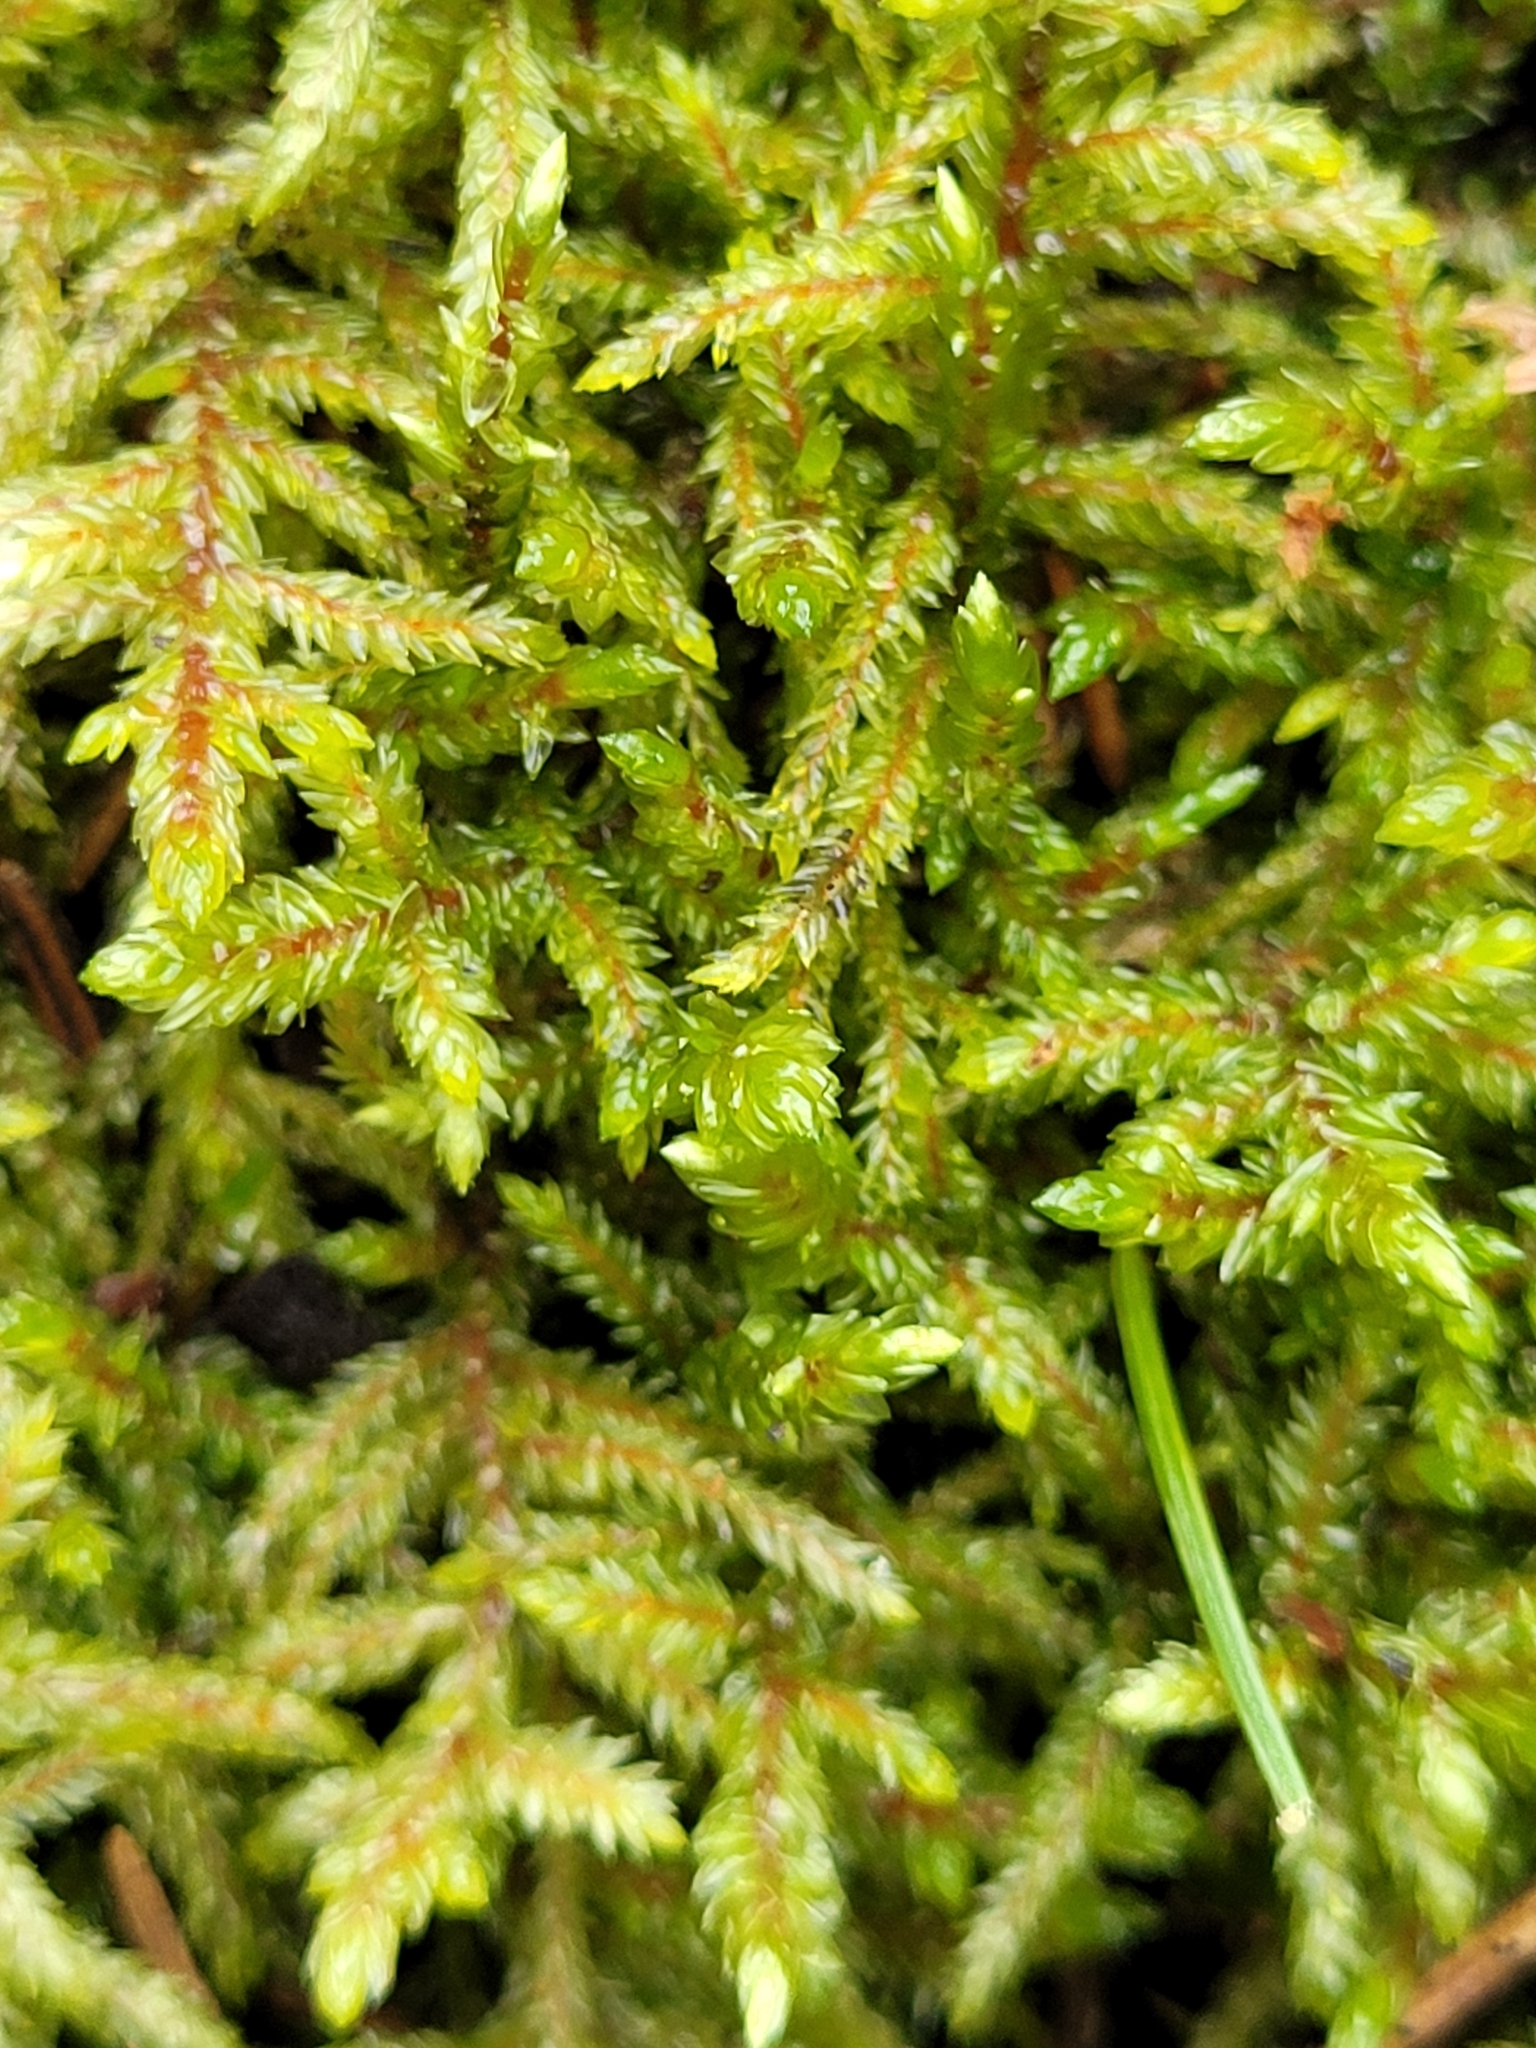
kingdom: Plantae
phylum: Bryophyta
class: Bryopsida
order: Hypnales
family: Hylocomiaceae
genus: Pleurozium
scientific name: Pleurozium schreberi
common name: Red-stemmed feather moss
